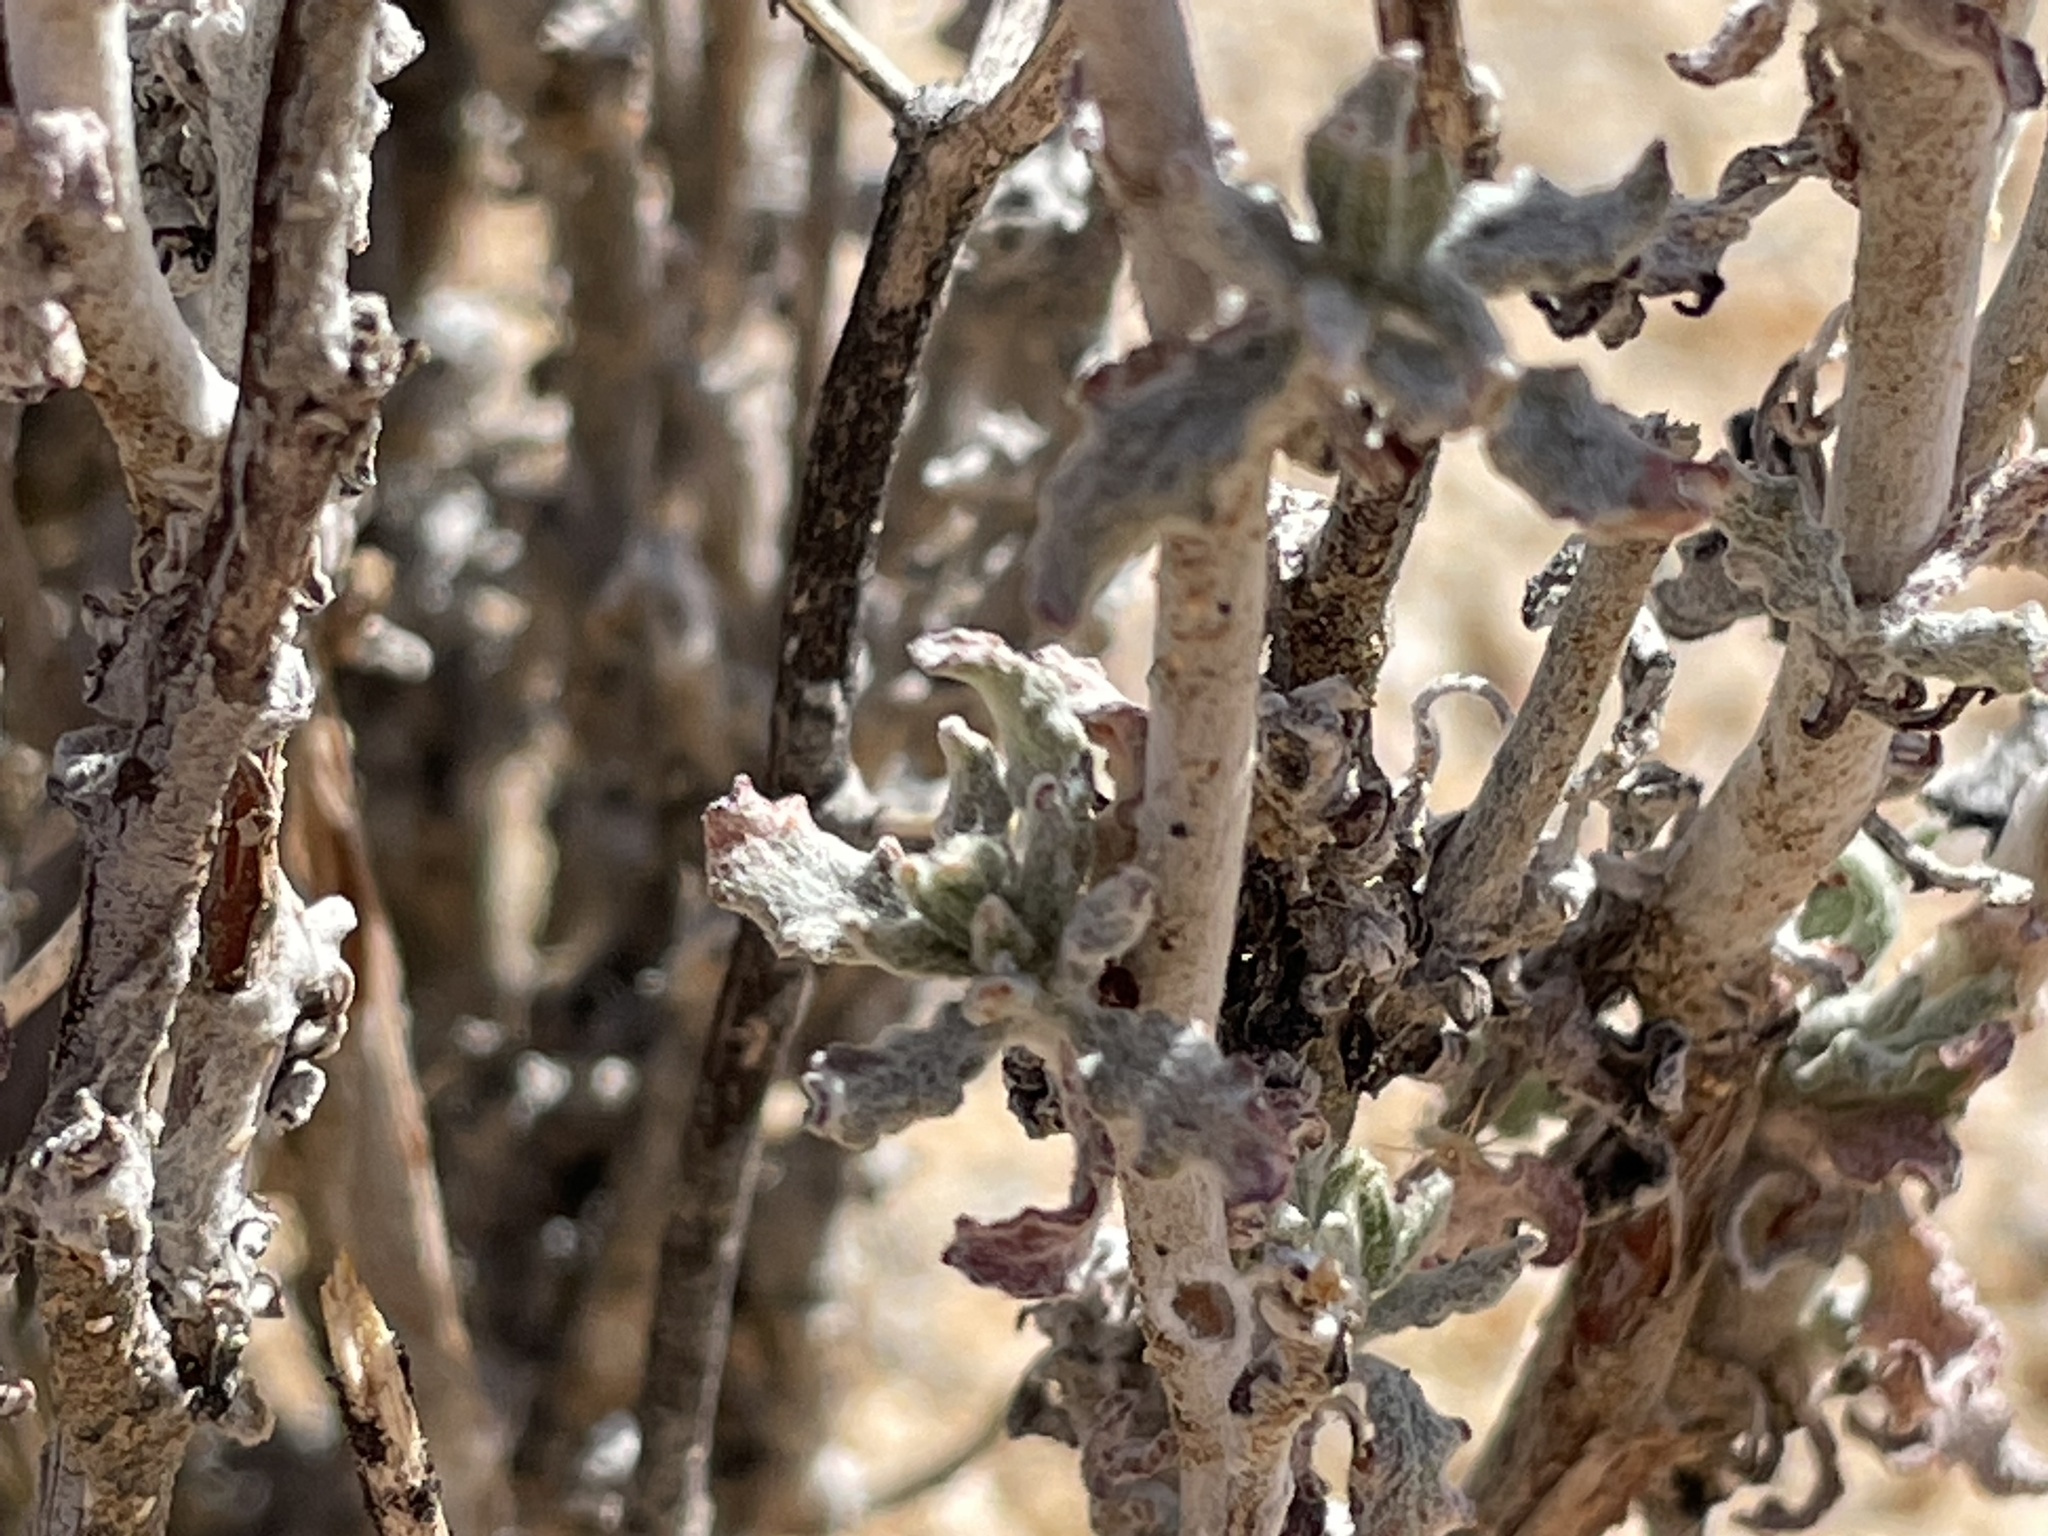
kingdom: Plantae
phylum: Tracheophyta
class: Magnoliopsida
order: Caryophyllales
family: Polygonaceae
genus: Eriogonum
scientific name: Eriogonum plumatella
